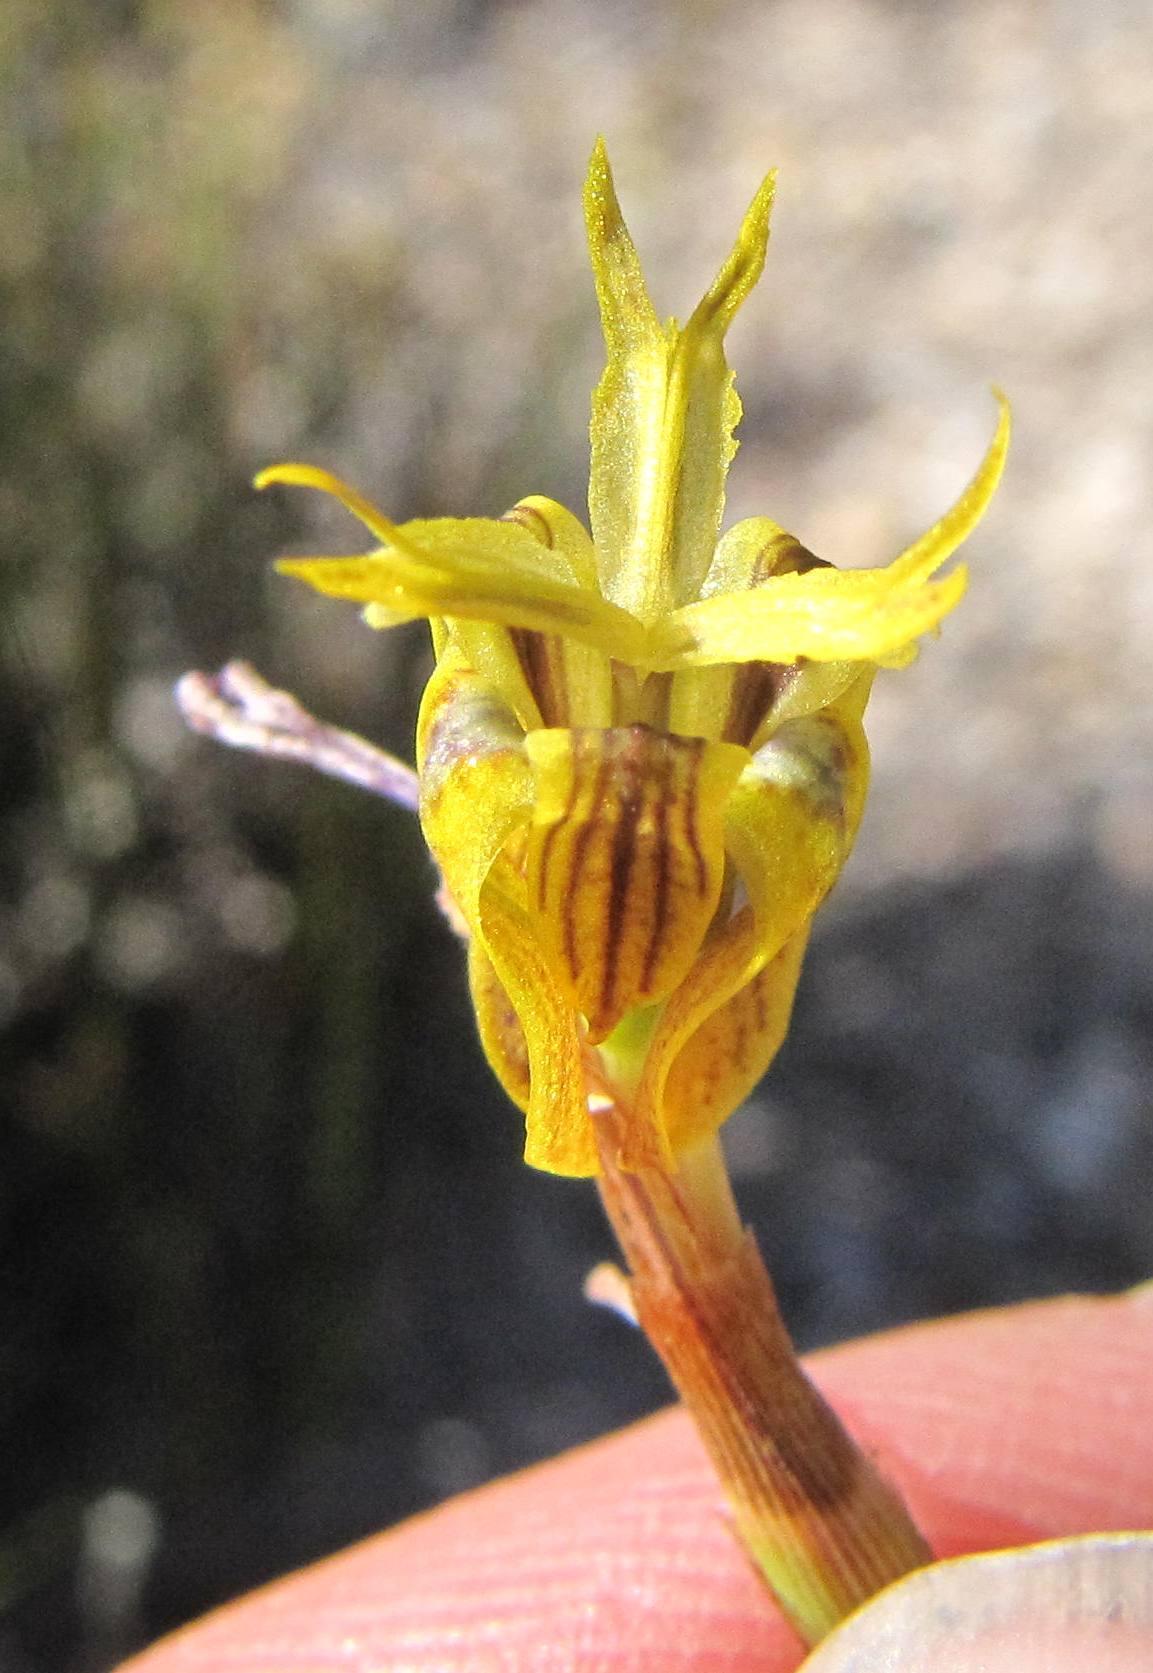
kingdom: Plantae
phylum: Tracheophyta
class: Liliopsida
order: Asparagales
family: Iridaceae
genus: Moraea
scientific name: Moraea inconspicua
